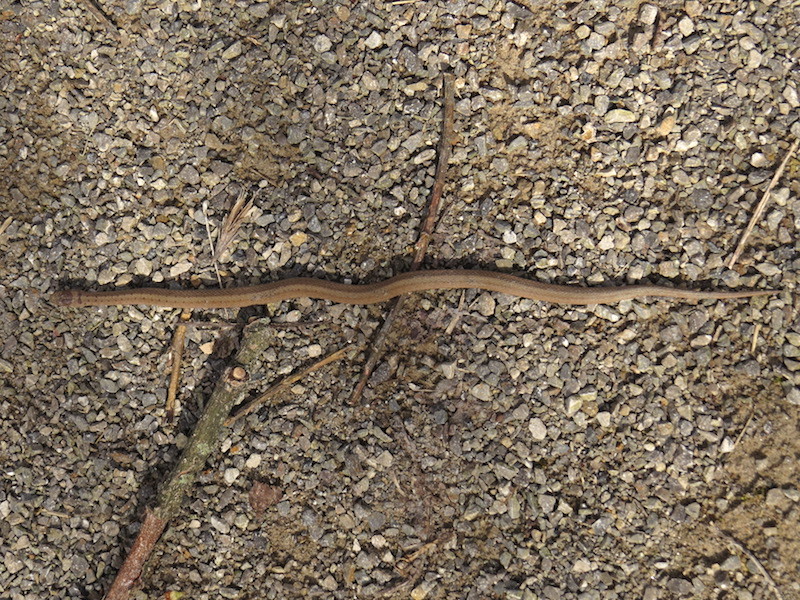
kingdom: Animalia
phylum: Chordata
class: Squamata
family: Colubridae
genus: Storeria
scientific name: Storeria dekayi
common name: (dekay’s) brown snake
